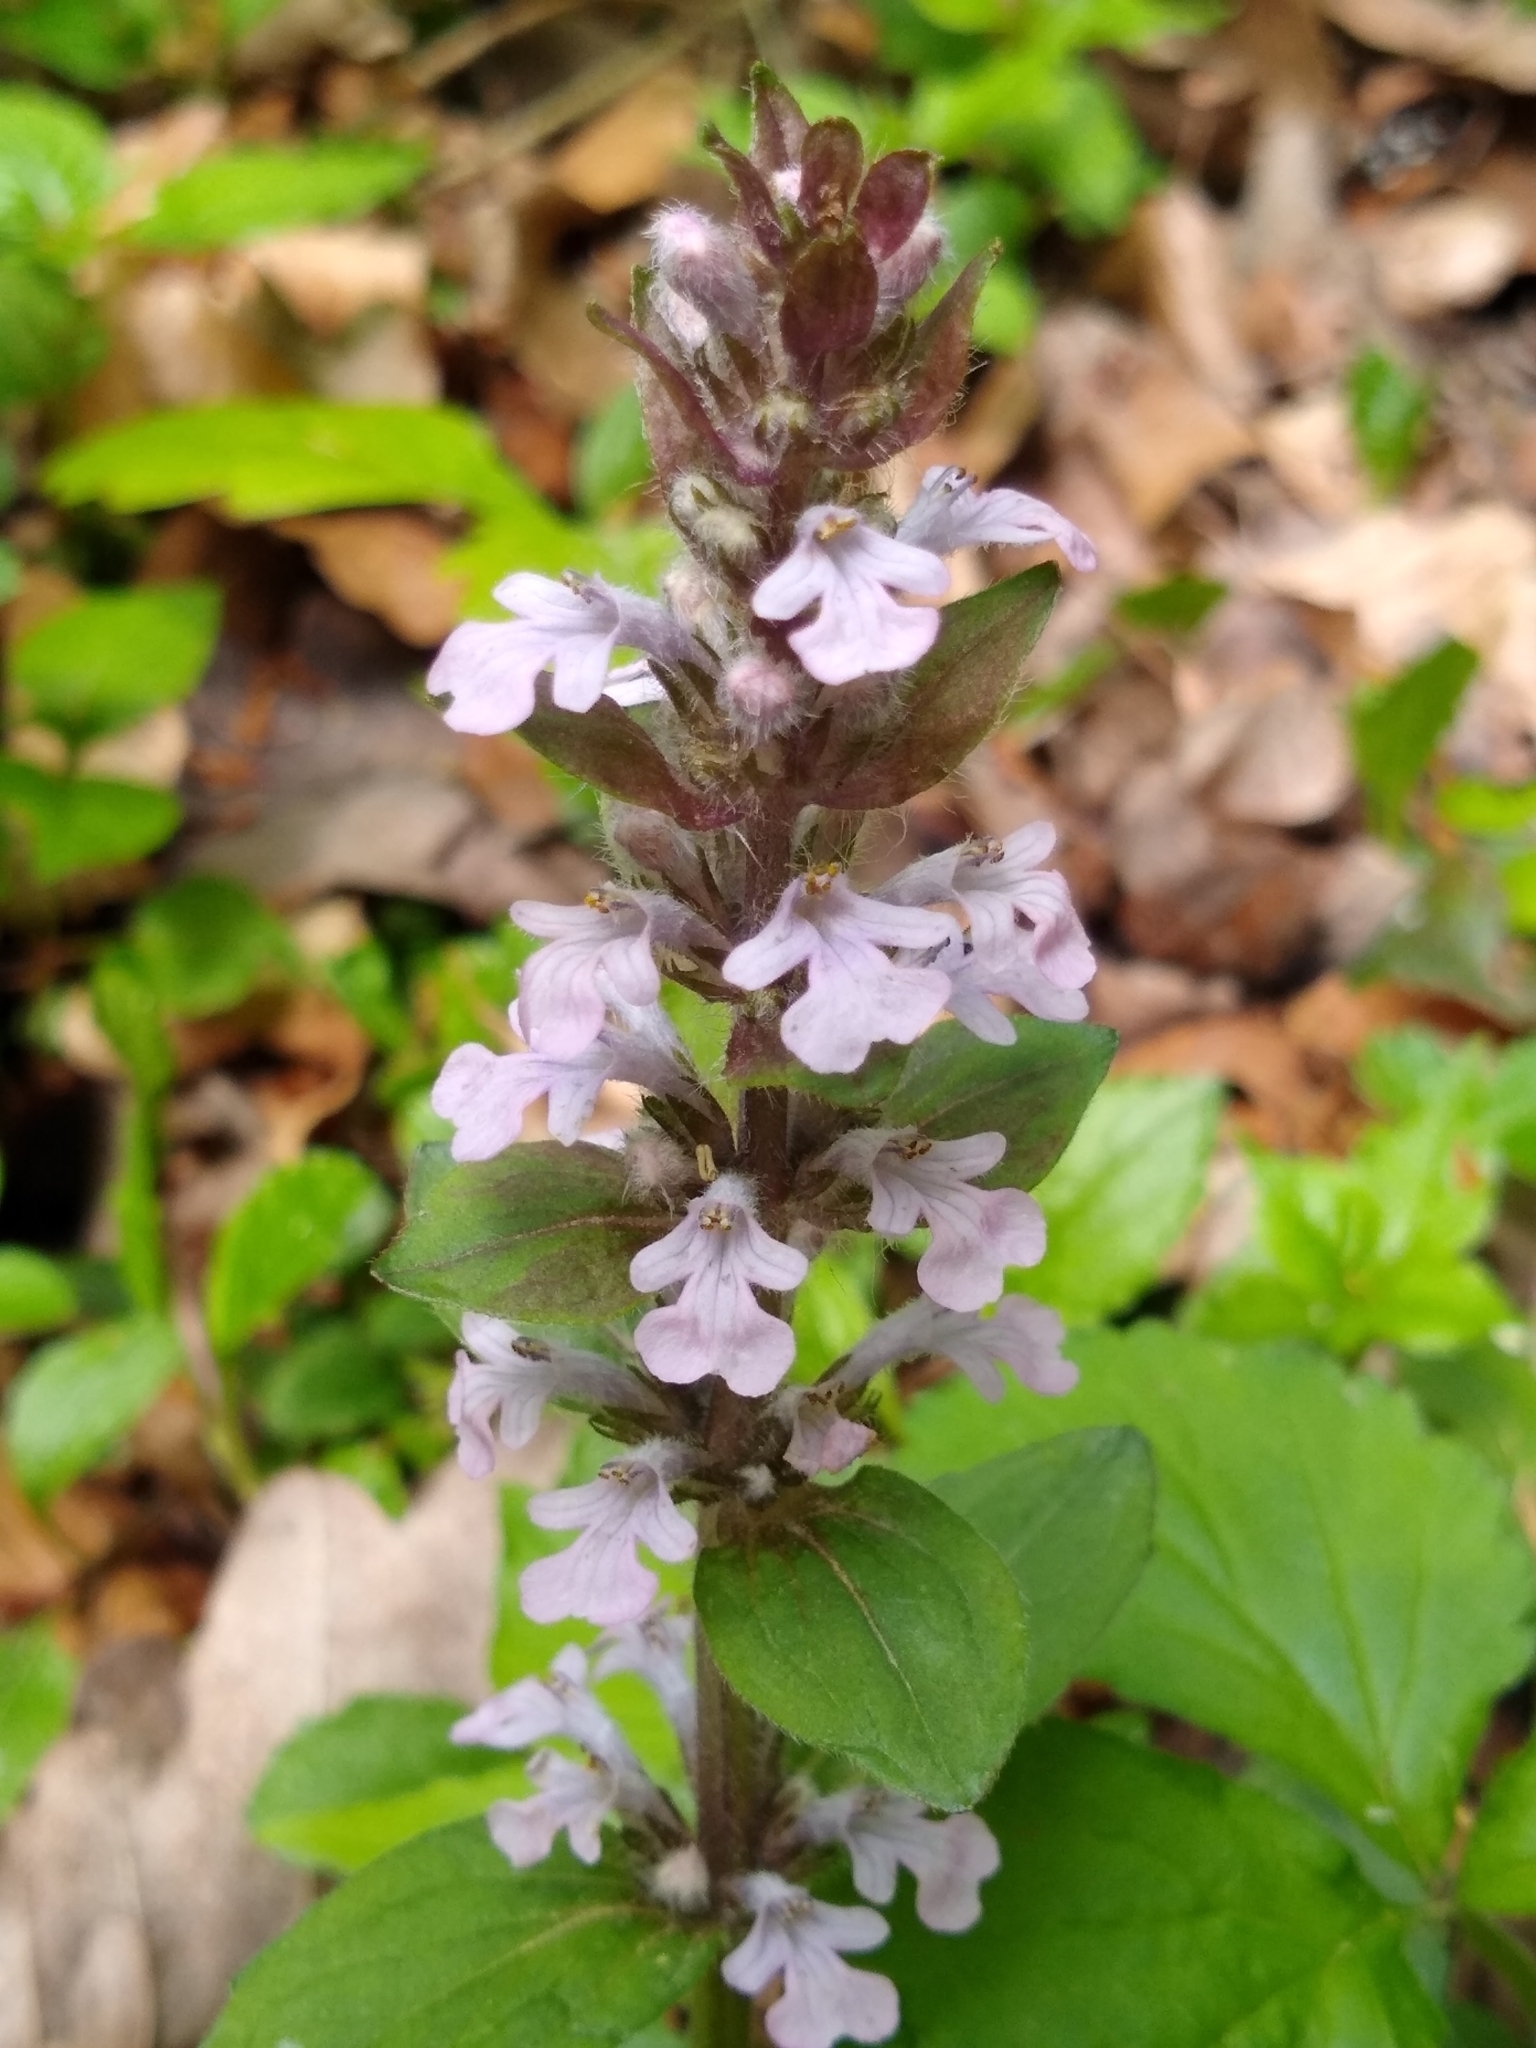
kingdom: Plantae
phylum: Tracheophyta
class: Magnoliopsida
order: Lamiales
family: Lamiaceae
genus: Ajuga
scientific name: Ajuga reptans
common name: Bugle
